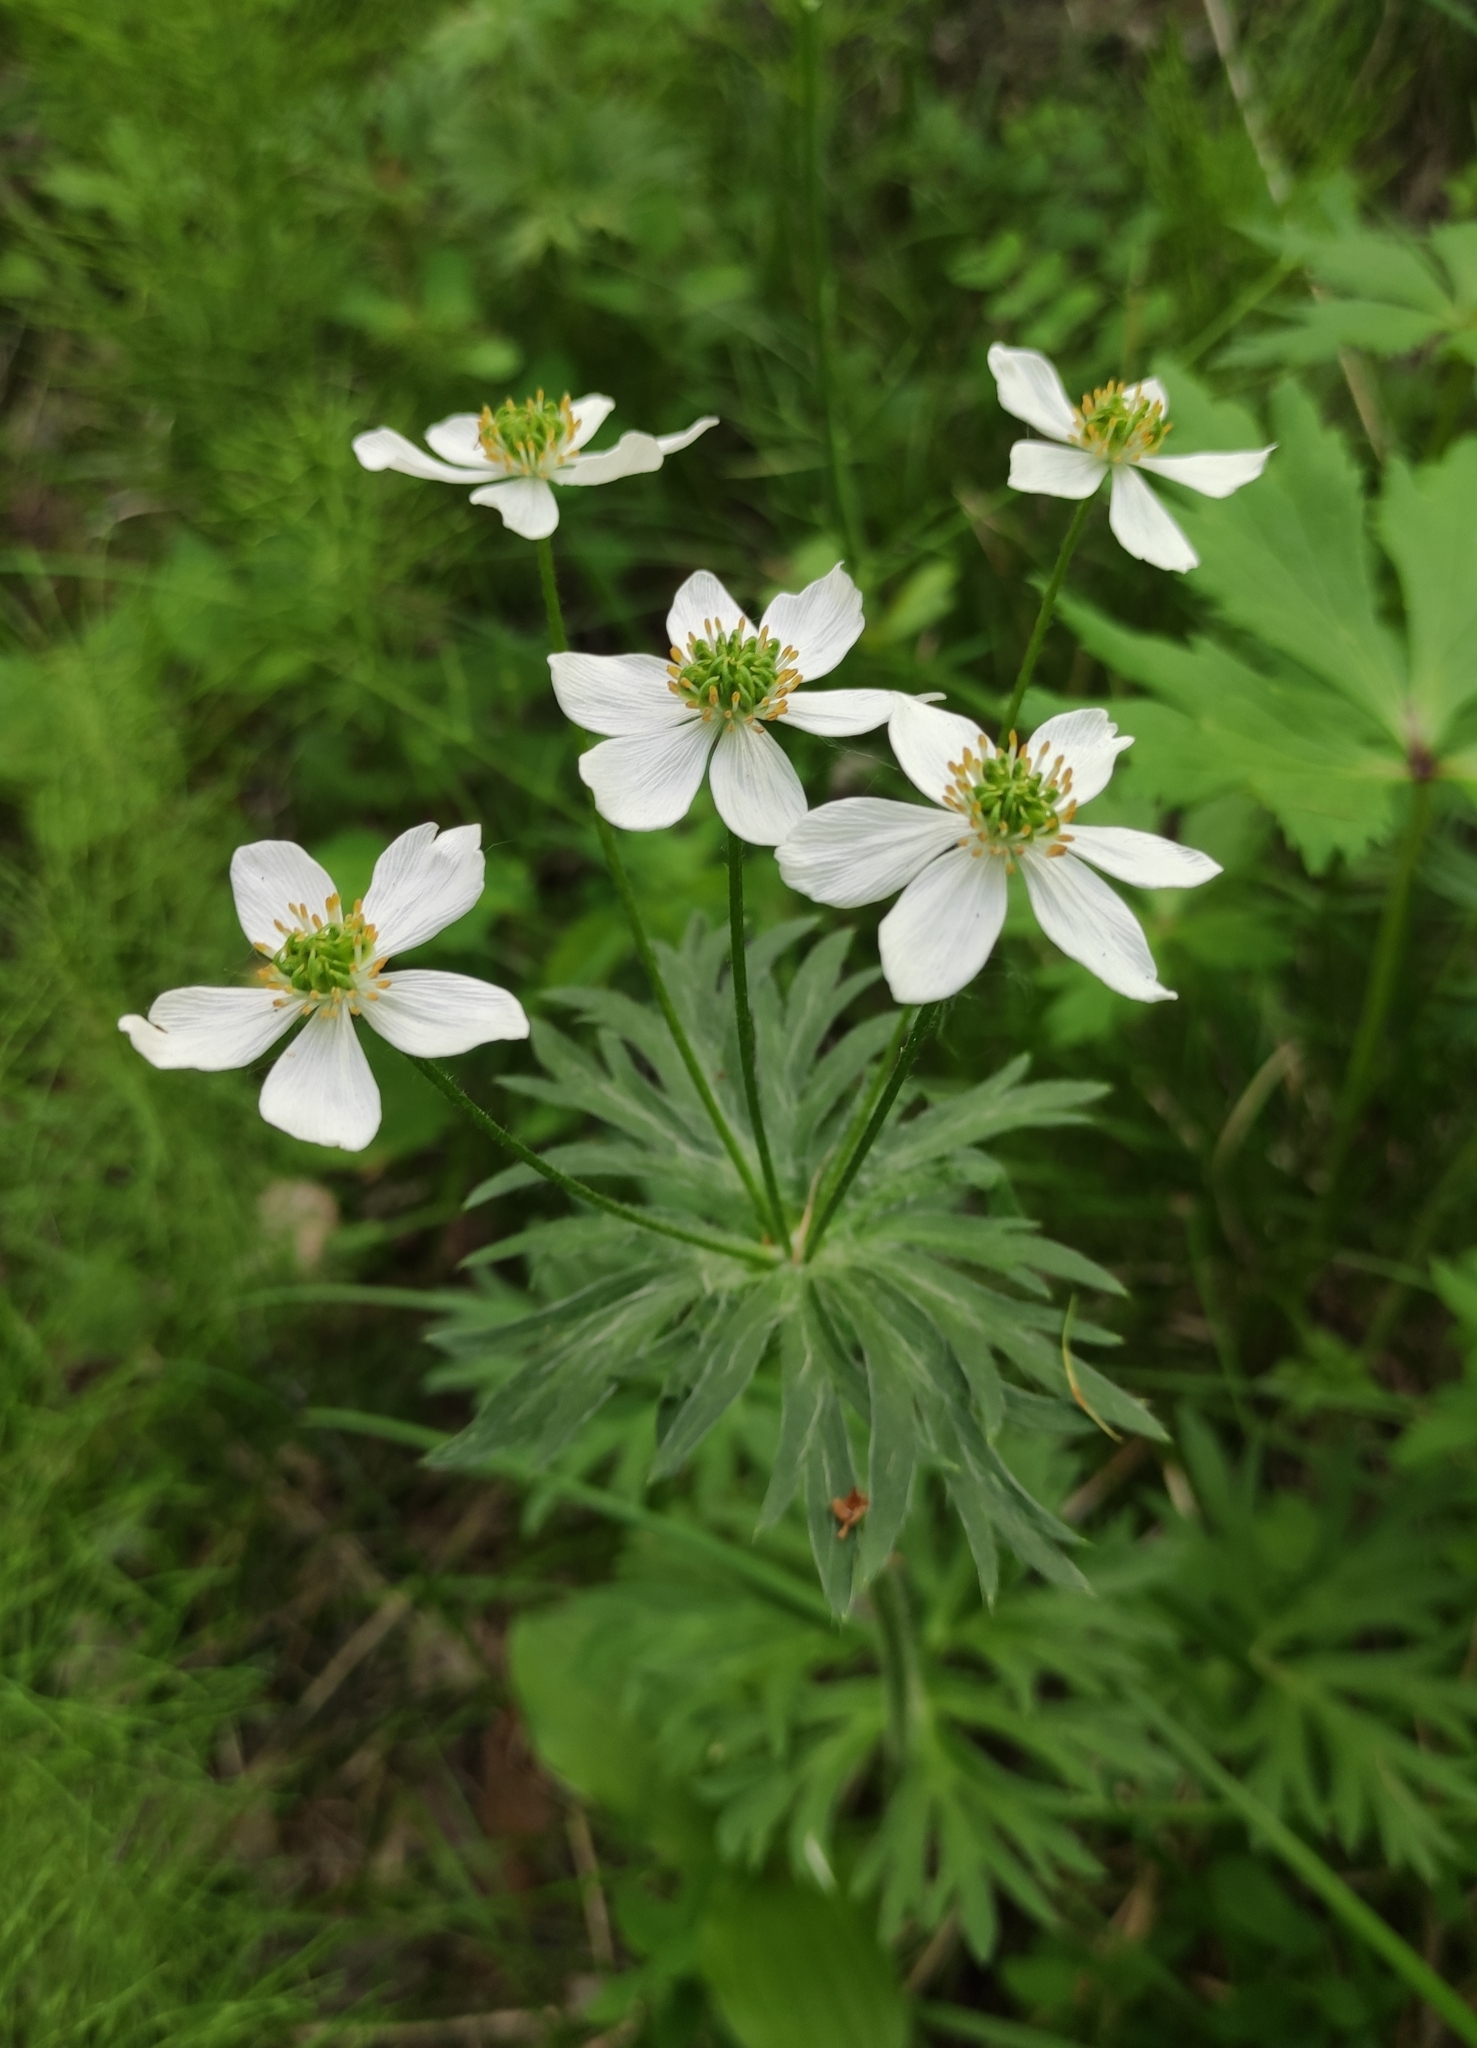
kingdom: Plantae
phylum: Tracheophyta
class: Magnoliopsida
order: Ranunculales
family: Ranunculaceae
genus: Anemonastrum
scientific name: Anemonastrum narcissiflorum
